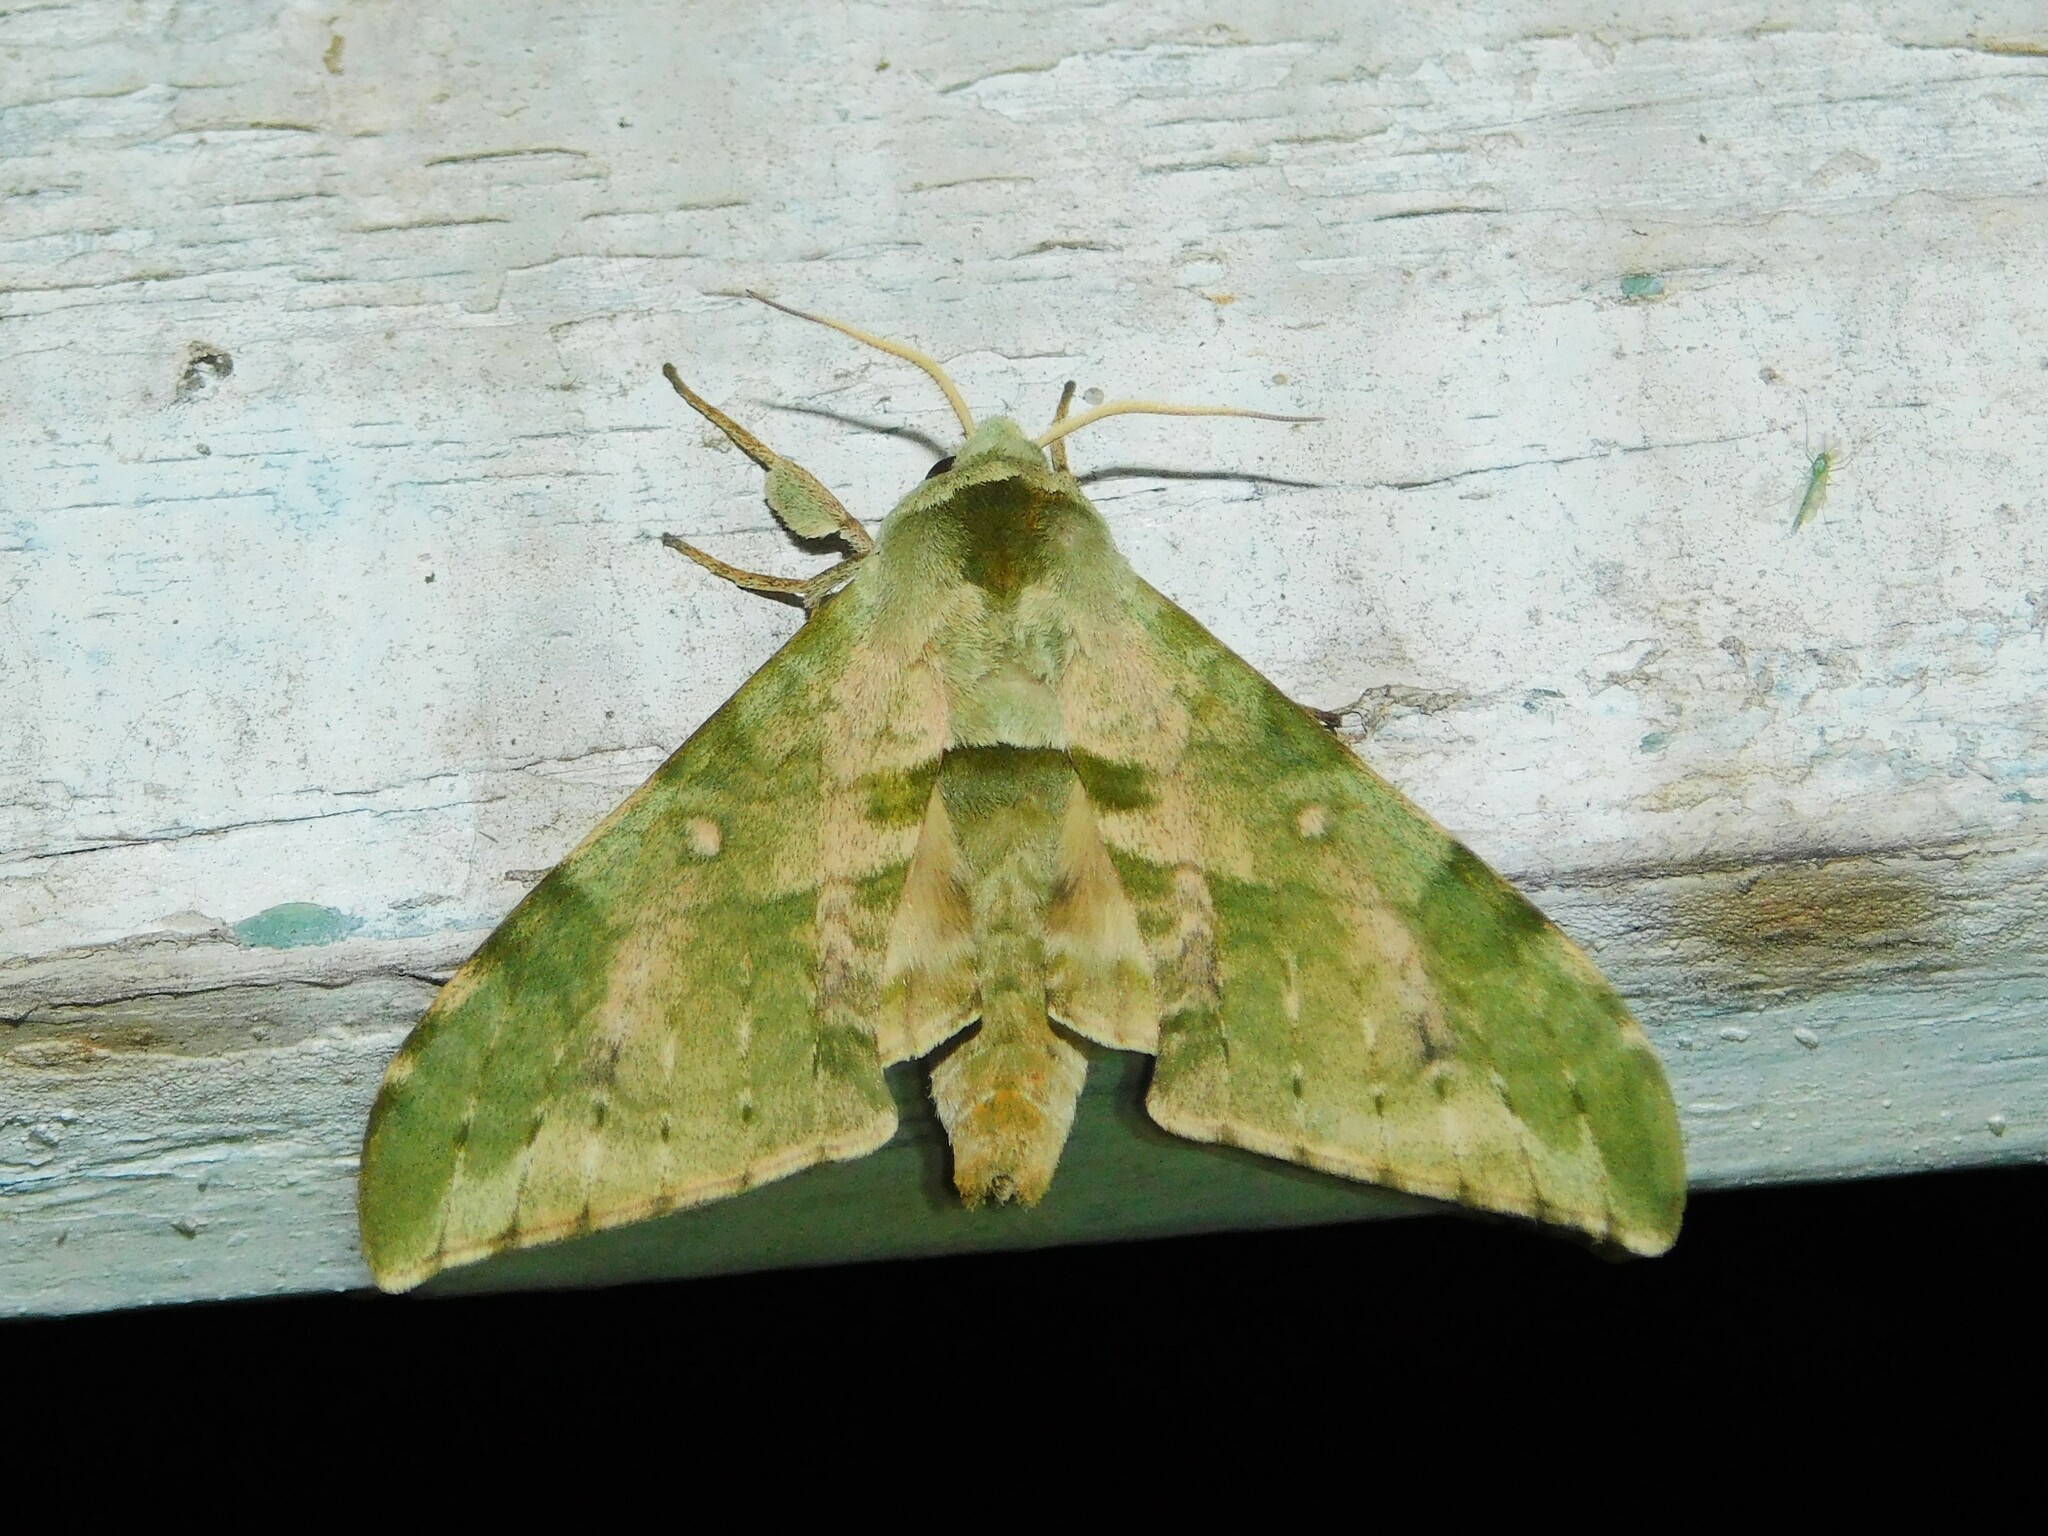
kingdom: Animalia
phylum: Arthropoda
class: Insecta
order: Lepidoptera
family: Sphingidae
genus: Chloroclanis
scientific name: Chloroclanis virescens
